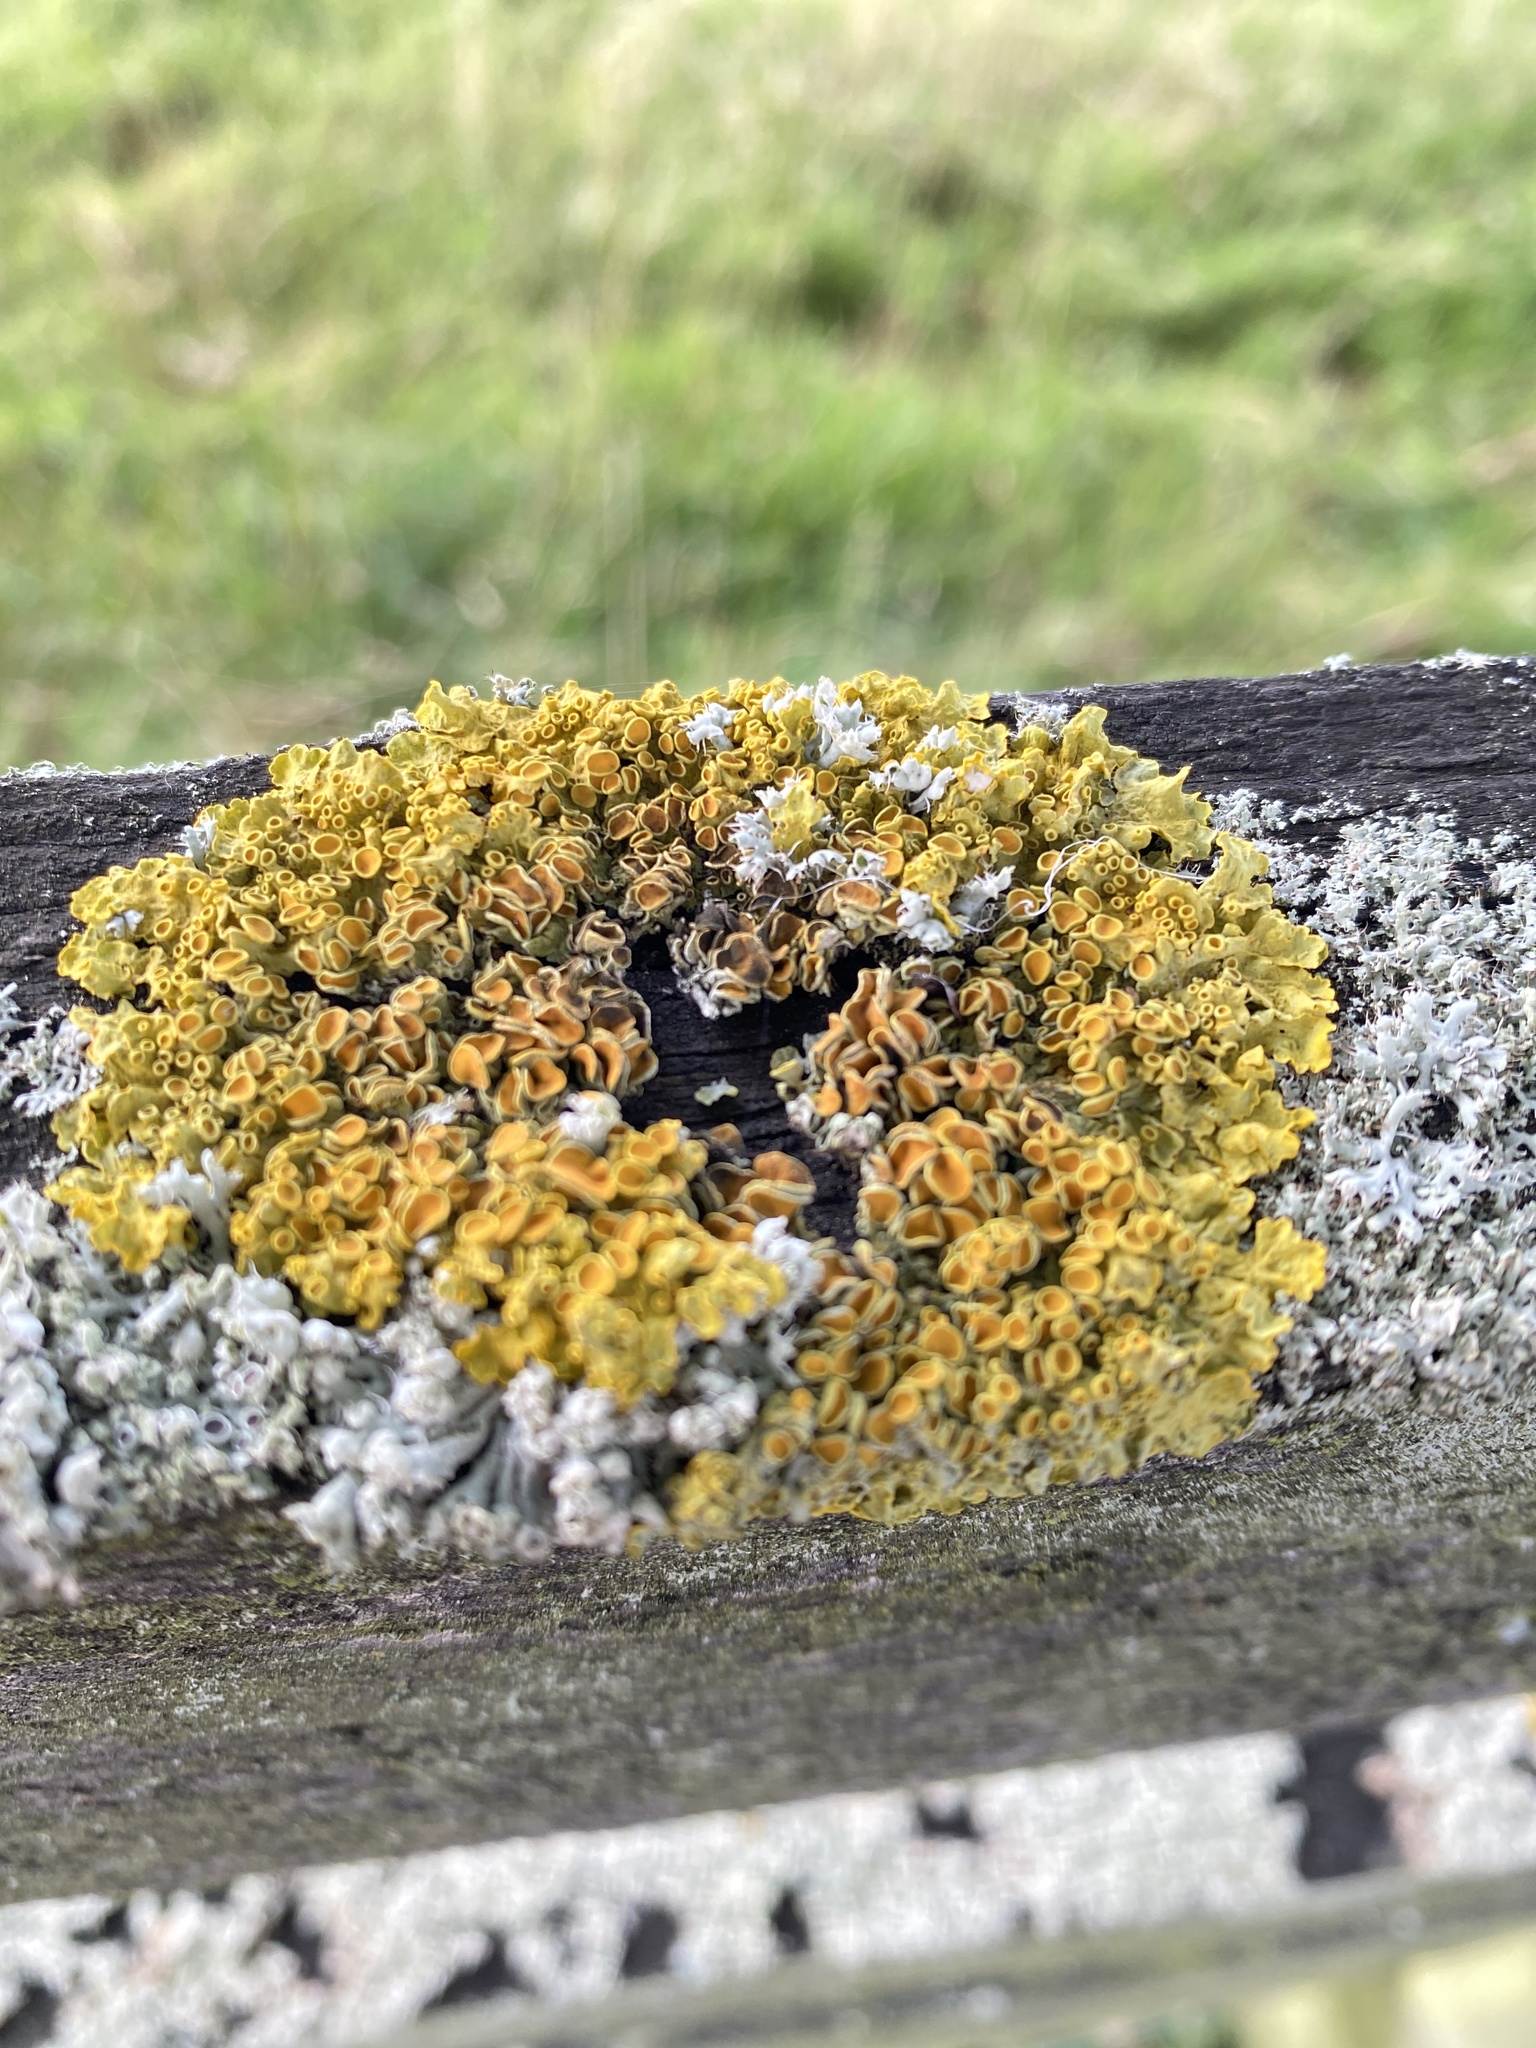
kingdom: Fungi
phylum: Ascomycota
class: Lecanoromycetes
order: Teloschistales
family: Teloschistaceae
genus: Xanthoria
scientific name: Xanthoria parietina
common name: Common orange lichen
